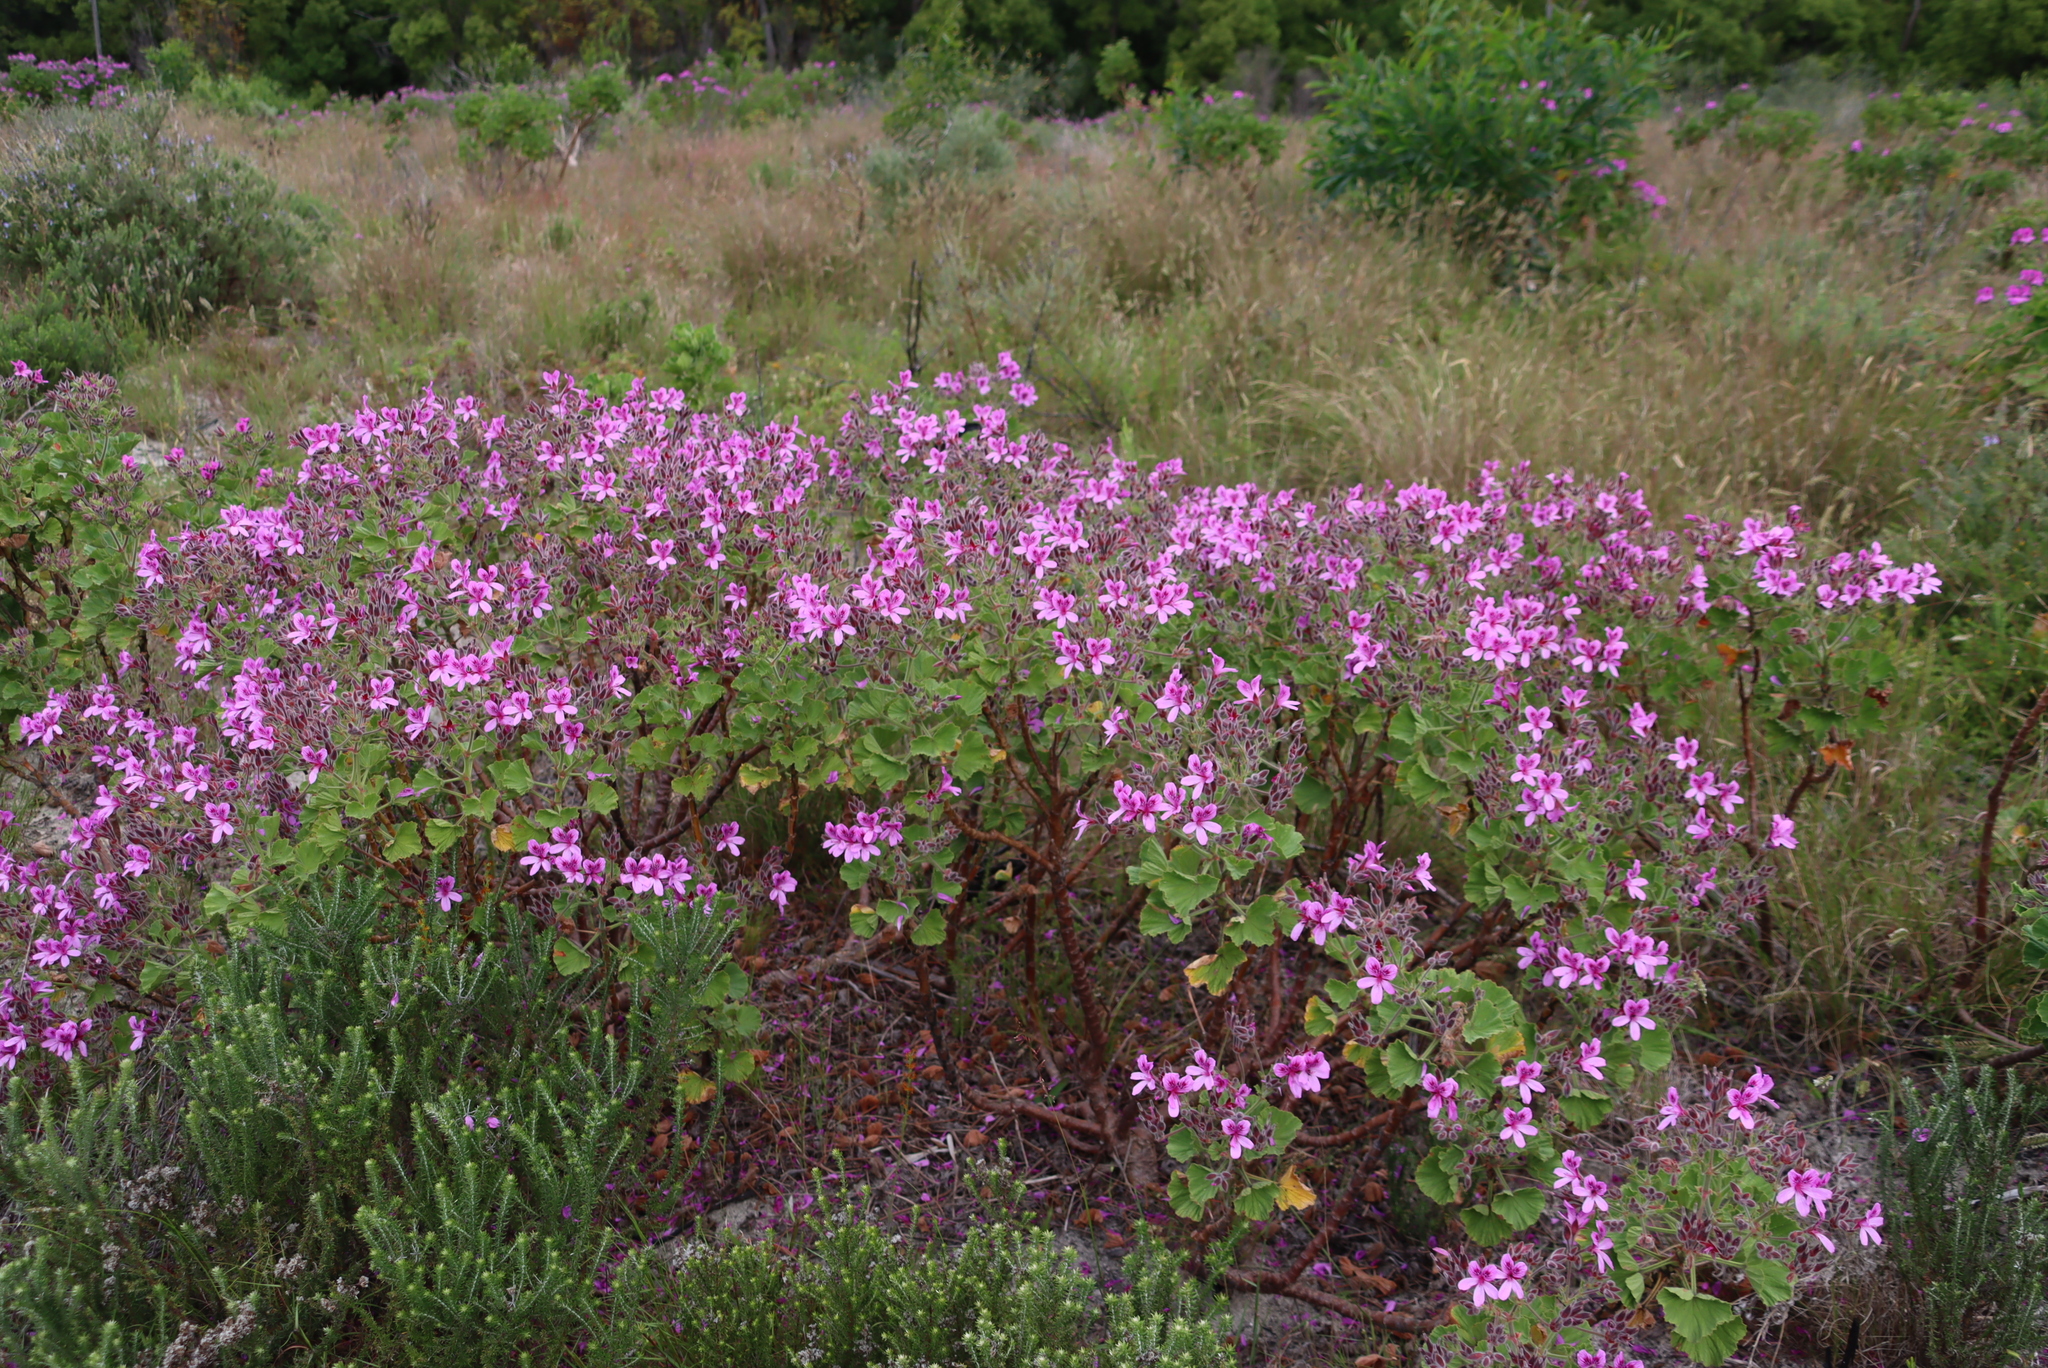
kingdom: Plantae
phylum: Tracheophyta
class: Magnoliopsida
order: Geraniales
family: Geraniaceae
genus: Pelargonium
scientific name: Pelargonium cucullatum
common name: Tree pelargonium
